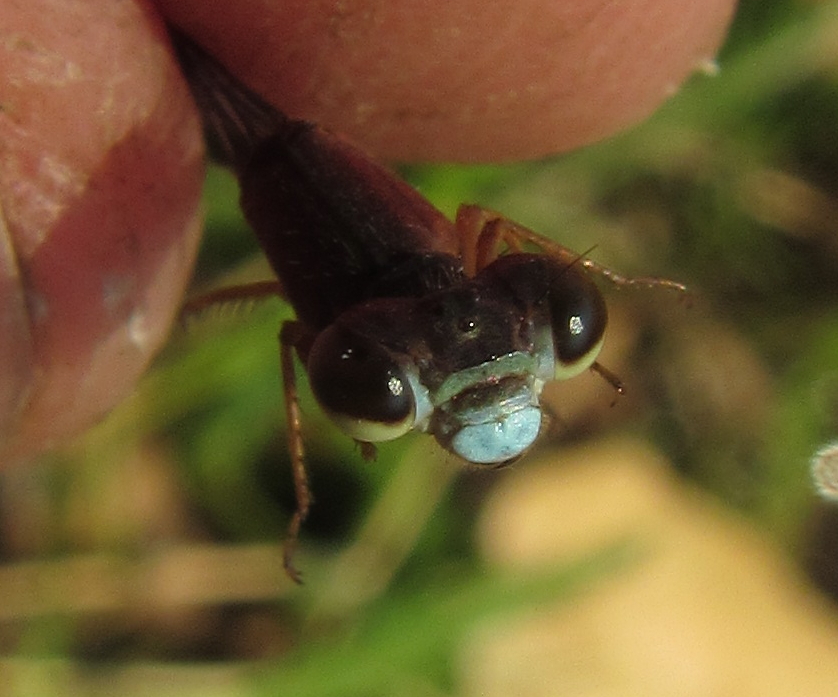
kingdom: Animalia
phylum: Arthropoda
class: Insecta
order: Odonata
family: Coenagrionidae
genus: Ceriagrion
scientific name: Ceriagrion katamborae
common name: White-faced waxtail
